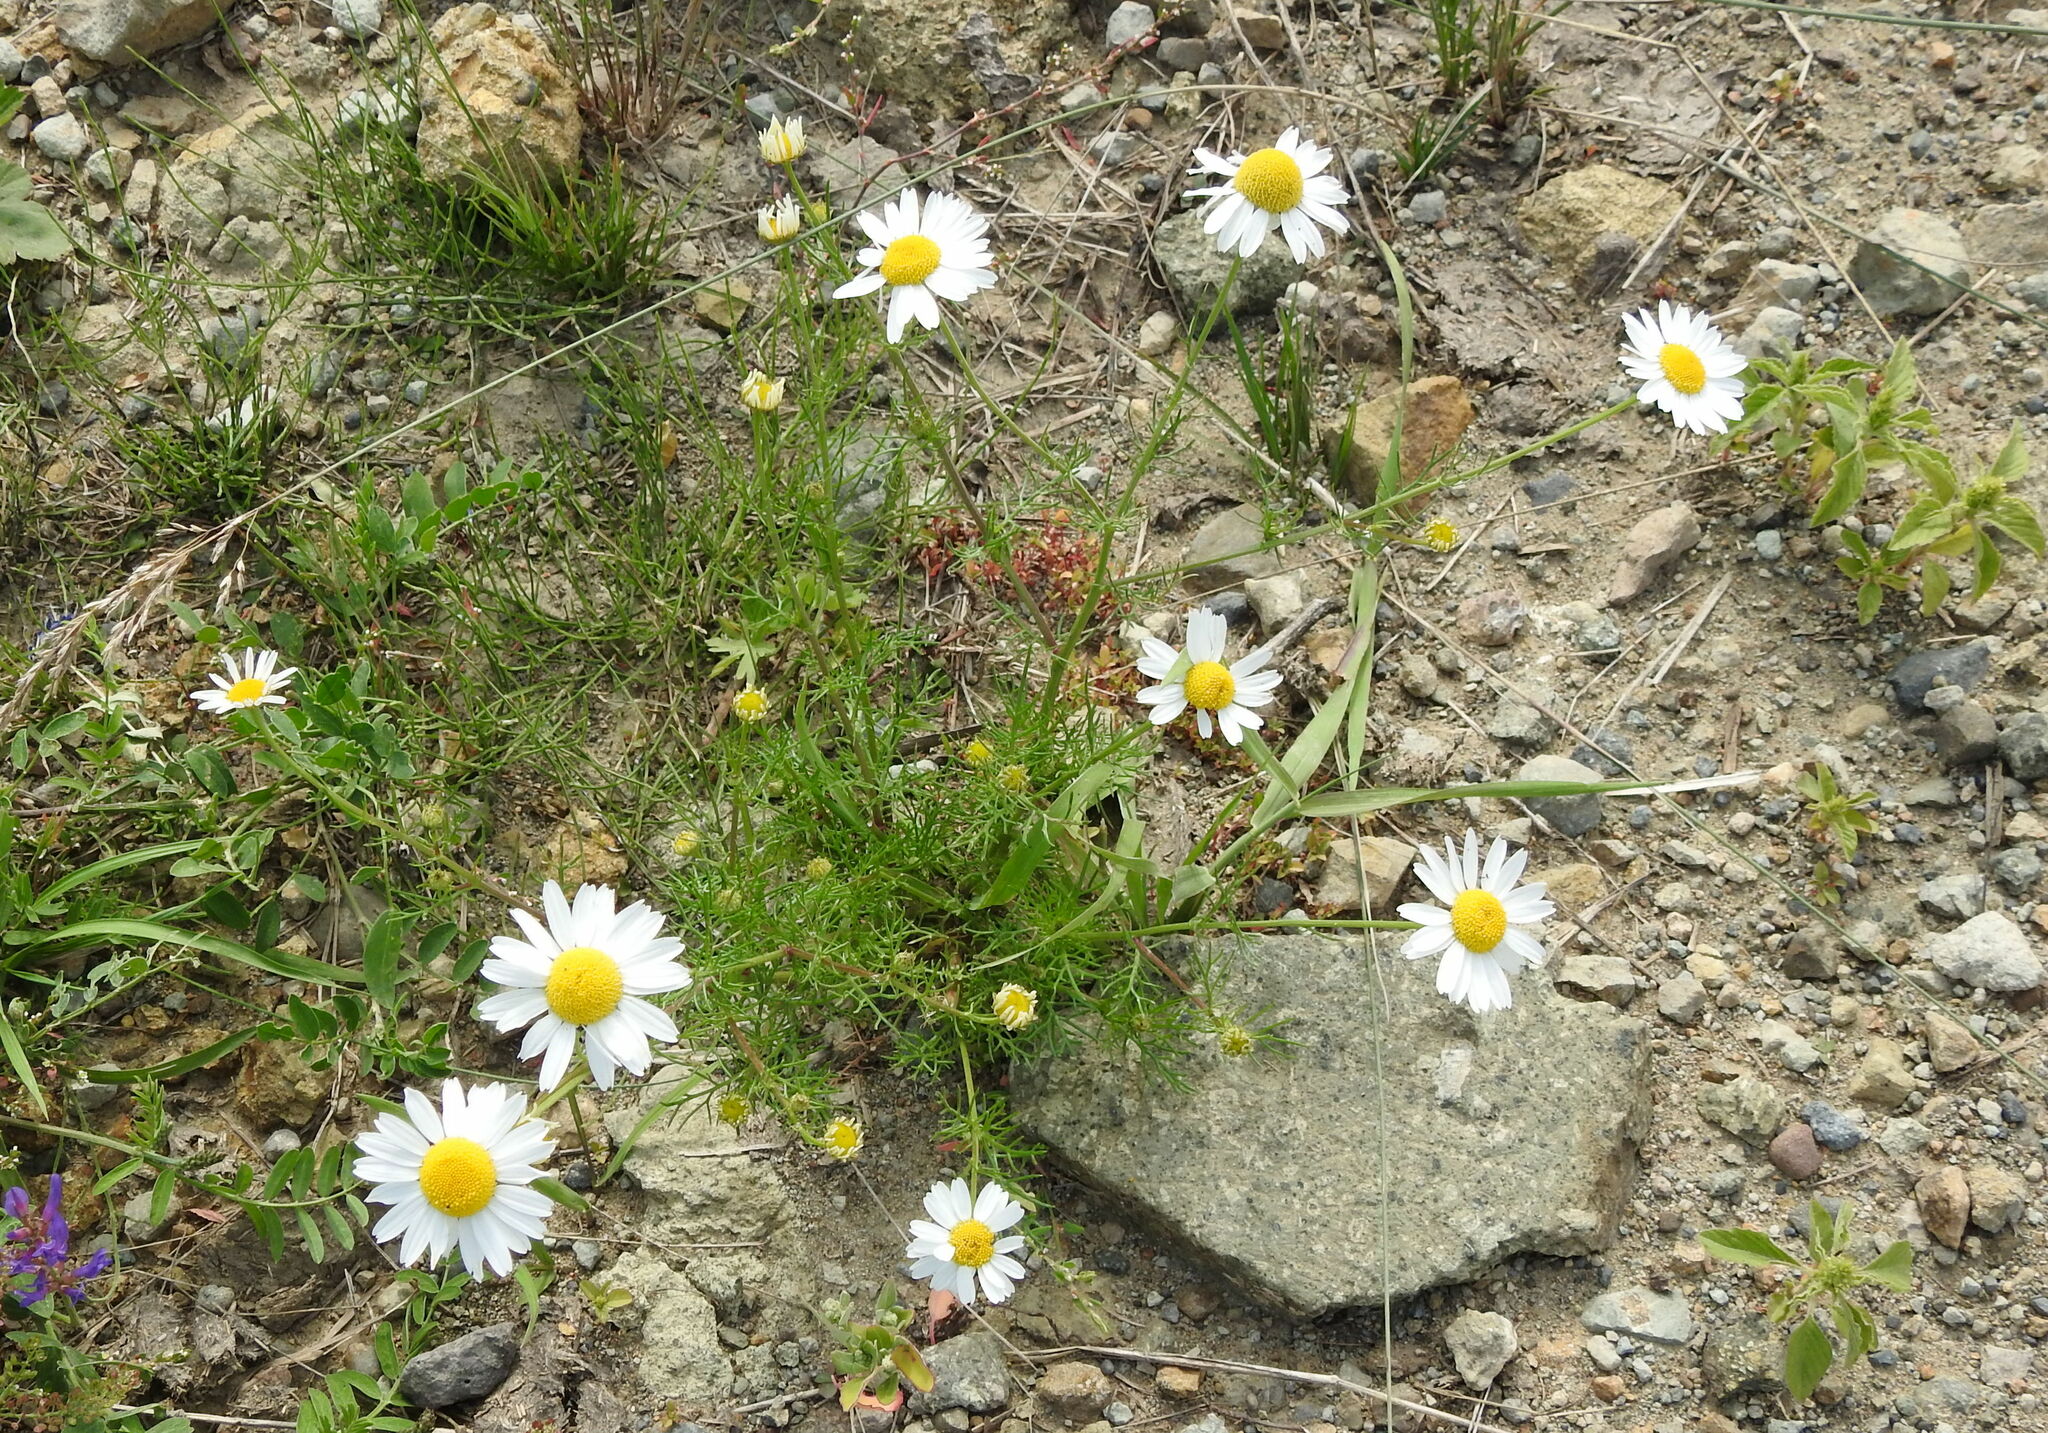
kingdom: Plantae
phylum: Tracheophyta
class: Magnoliopsida
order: Asterales
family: Asteraceae
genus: Tripleurospermum
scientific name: Tripleurospermum inodorum
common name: Scentless mayweed
